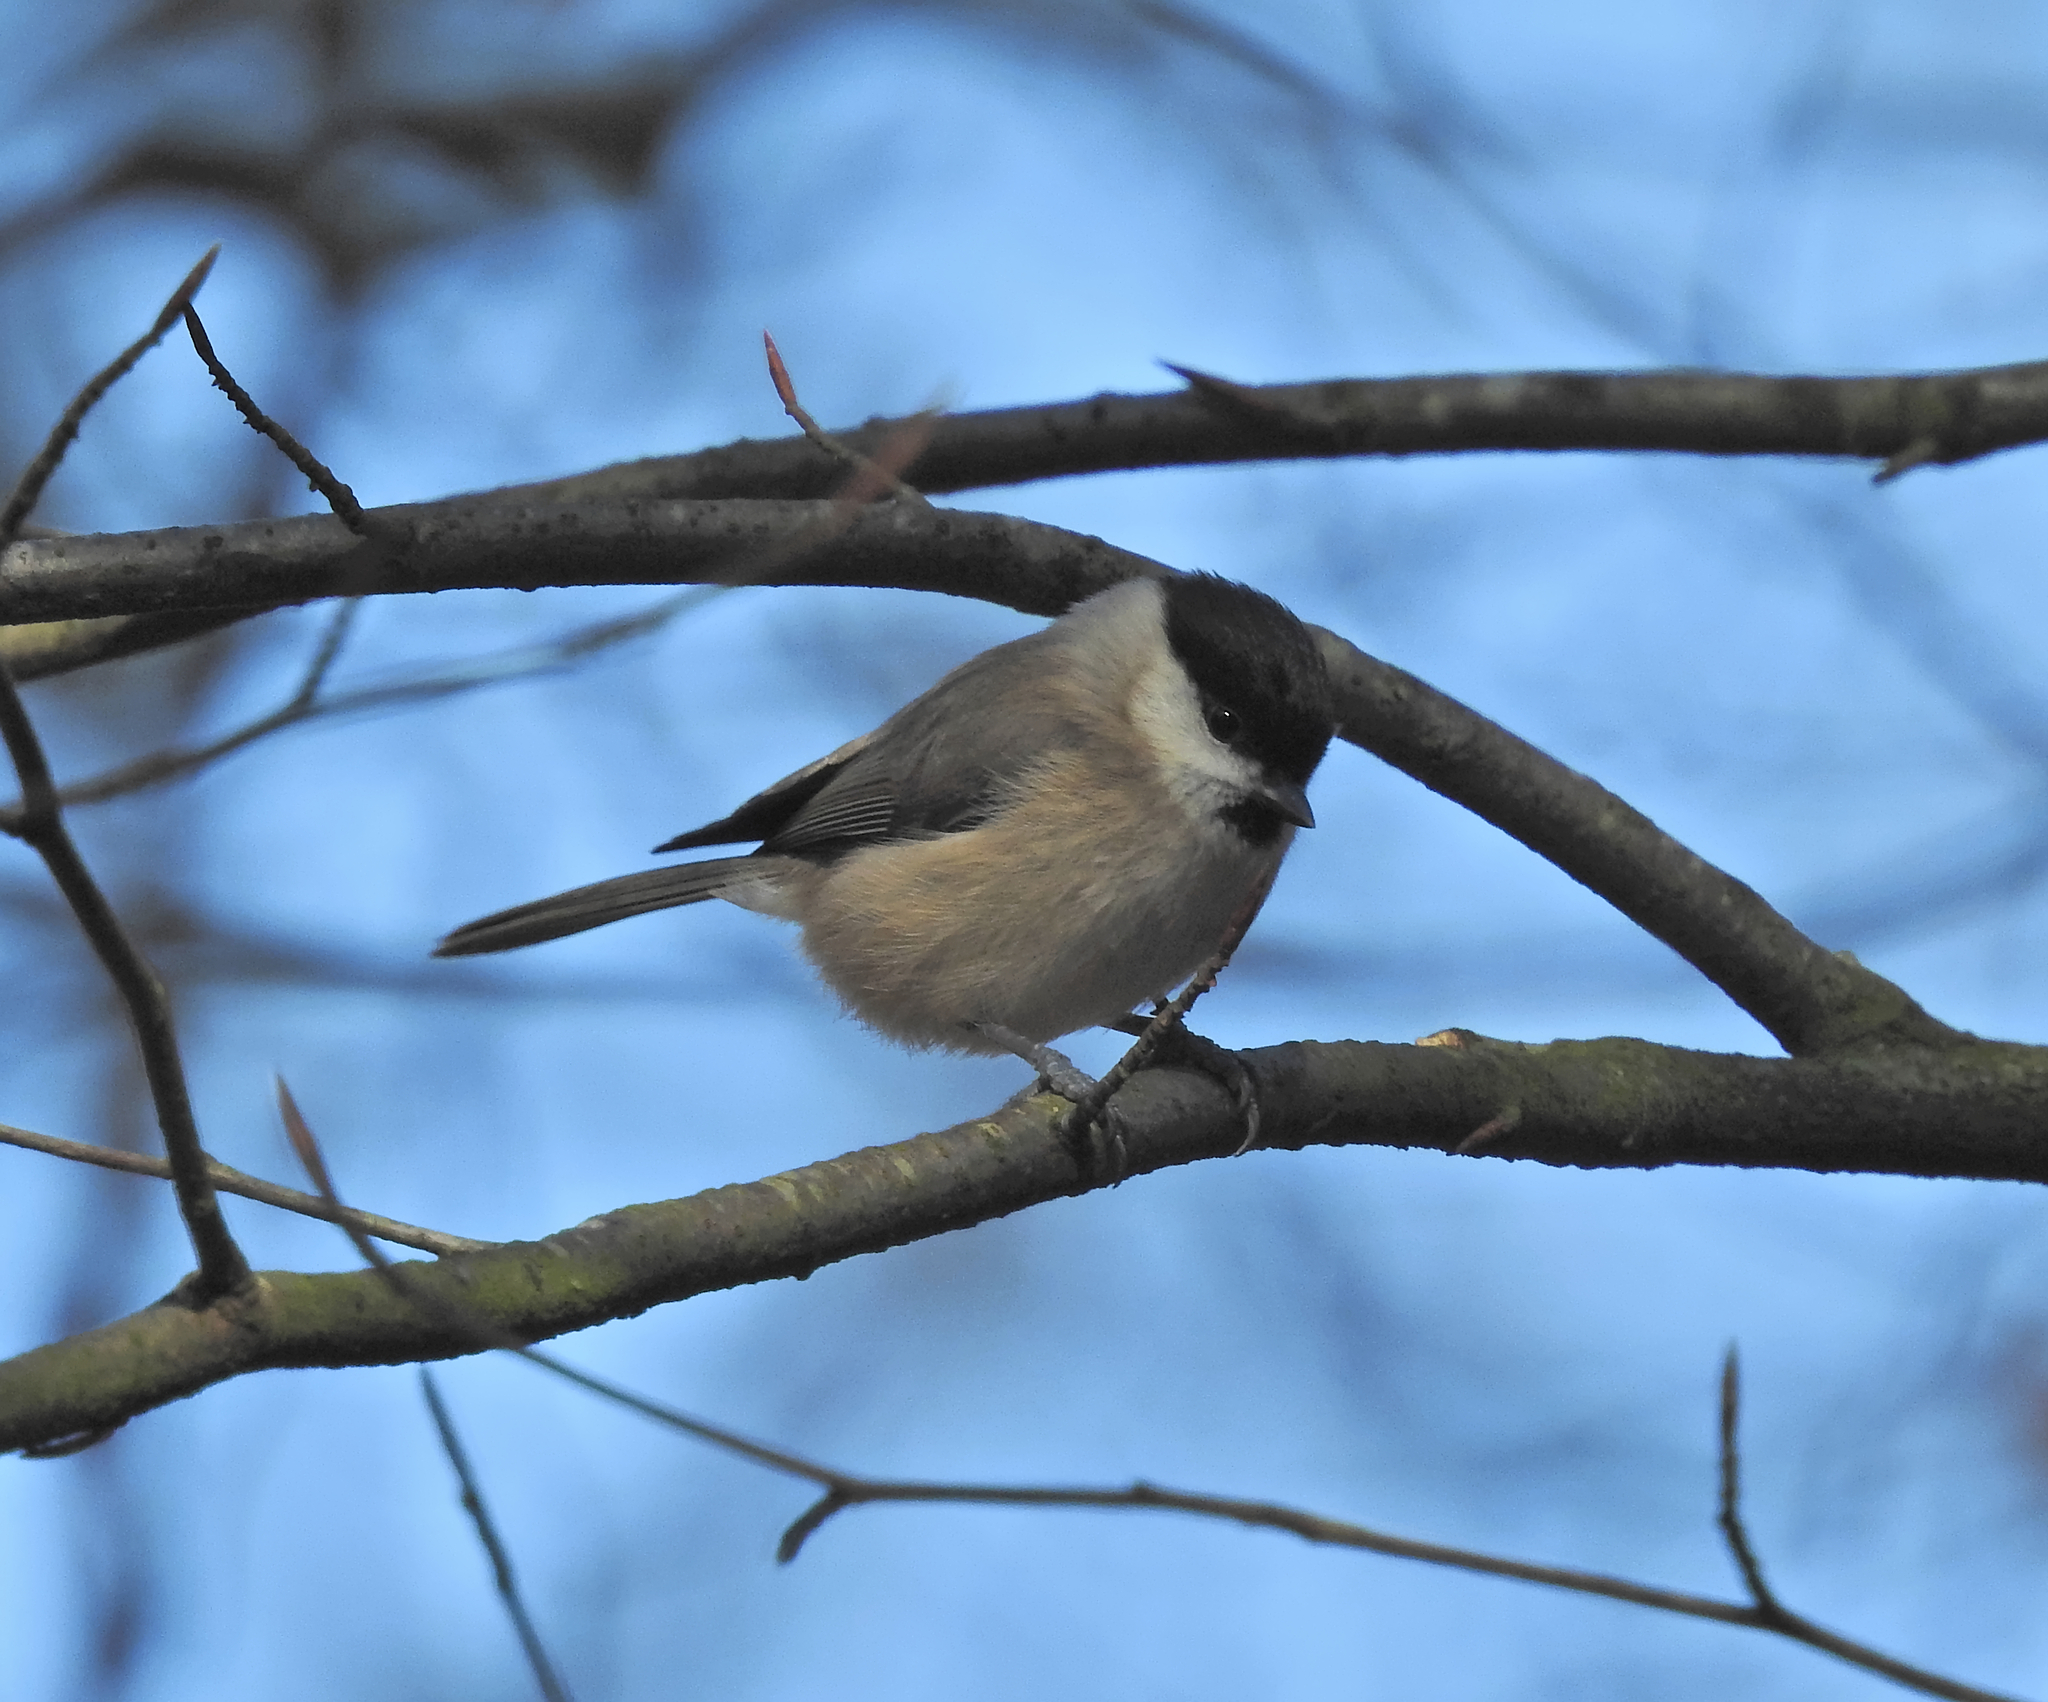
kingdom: Animalia
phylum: Chordata
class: Aves
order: Passeriformes
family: Paridae
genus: Poecile
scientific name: Poecile palustris
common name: Marsh tit
